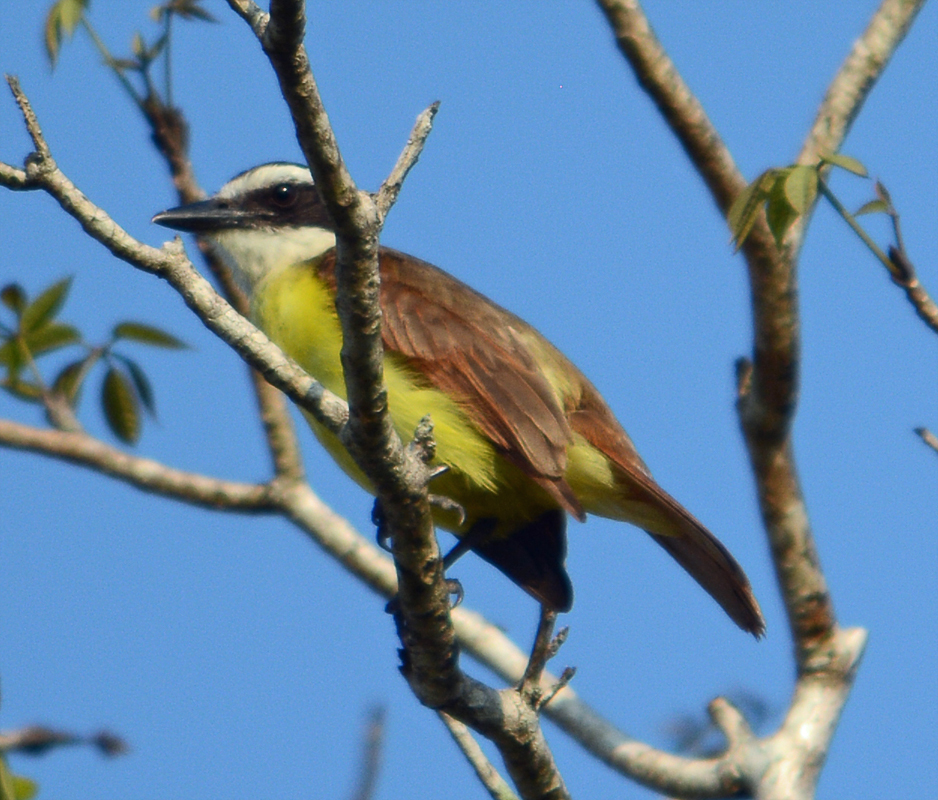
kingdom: Animalia
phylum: Chordata
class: Aves
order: Passeriformes
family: Tyrannidae
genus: Pitangus
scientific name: Pitangus sulphuratus
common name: Great kiskadee
